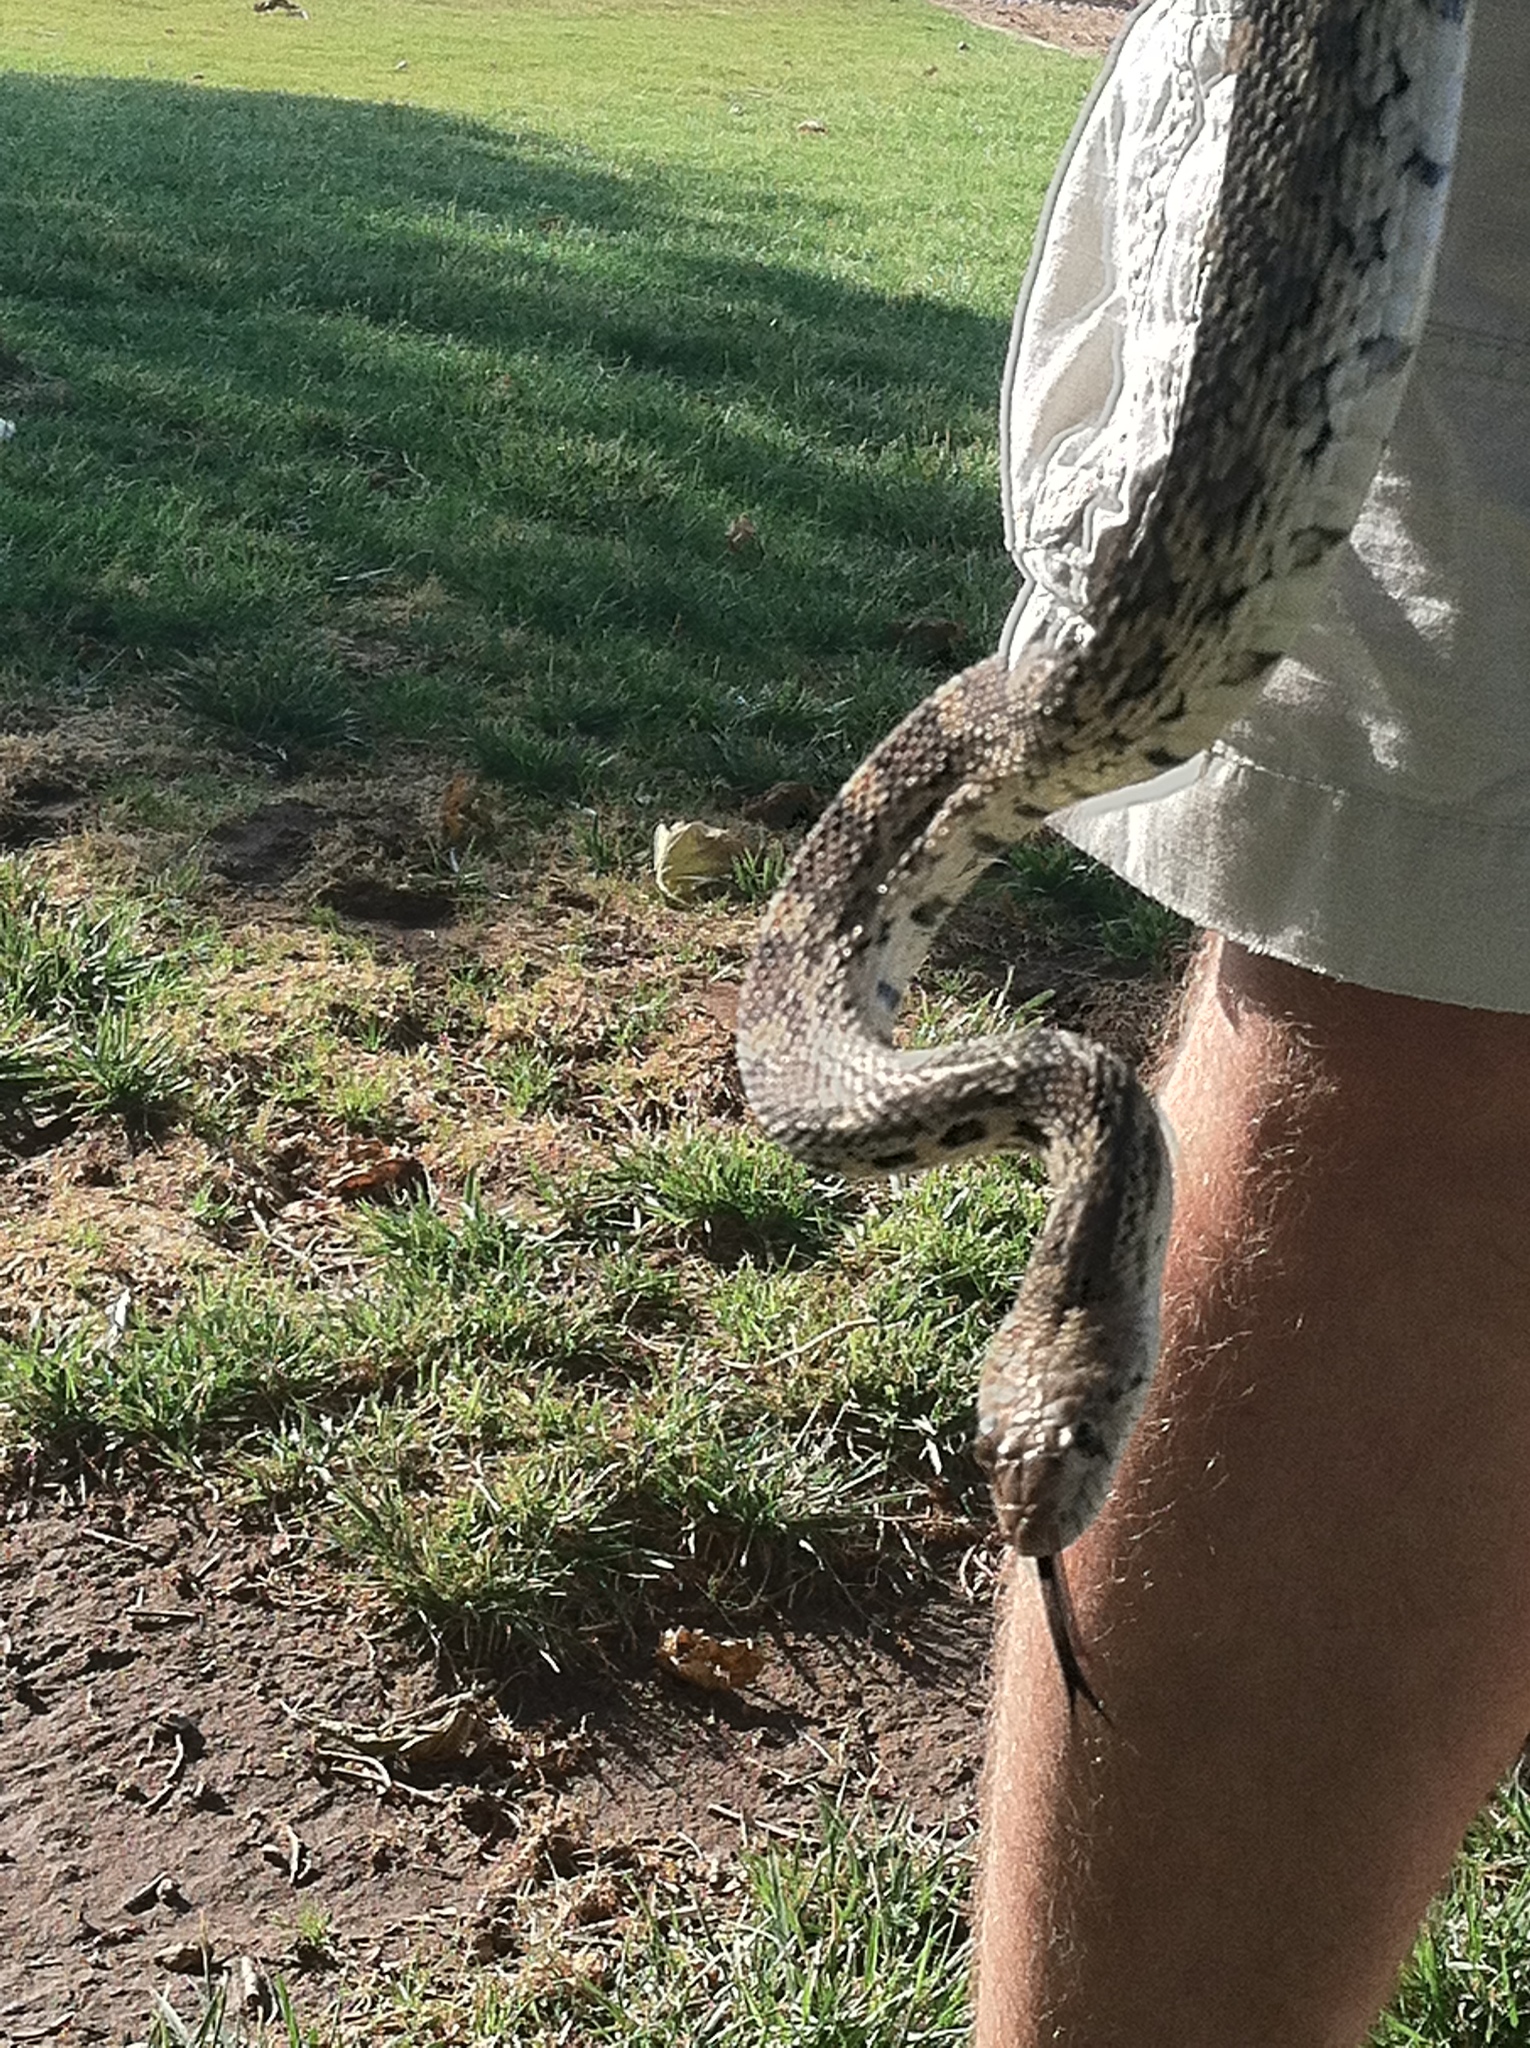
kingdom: Animalia
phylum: Chordata
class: Squamata
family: Colubridae
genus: Pituophis
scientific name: Pituophis catenifer
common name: Gopher snake
